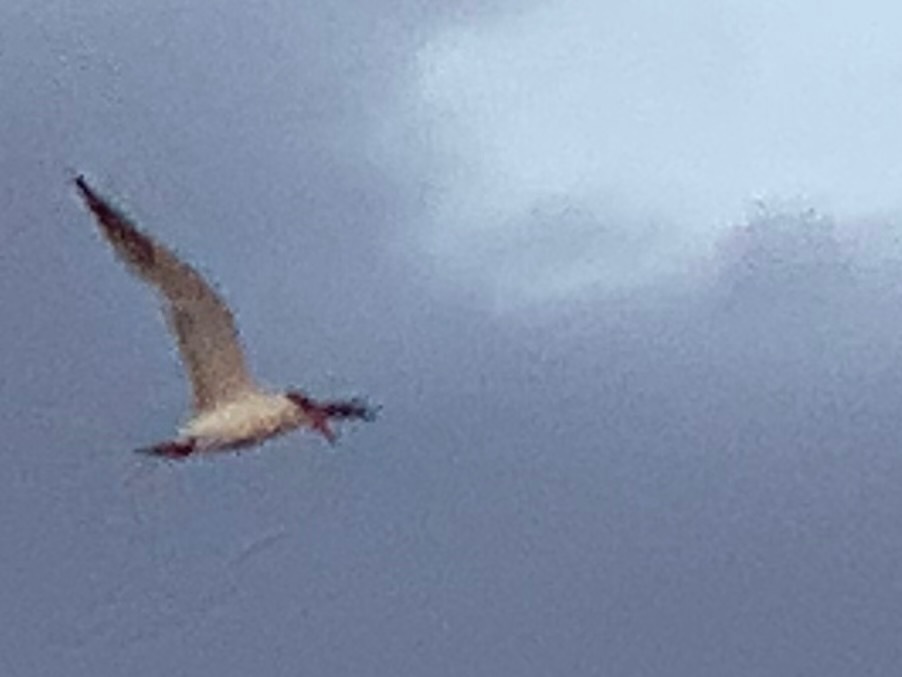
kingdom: Animalia
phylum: Chordata
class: Aves
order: Charadriiformes
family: Laridae
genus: Hydroprogne
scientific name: Hydroprogne caspia
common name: Caspian tern
